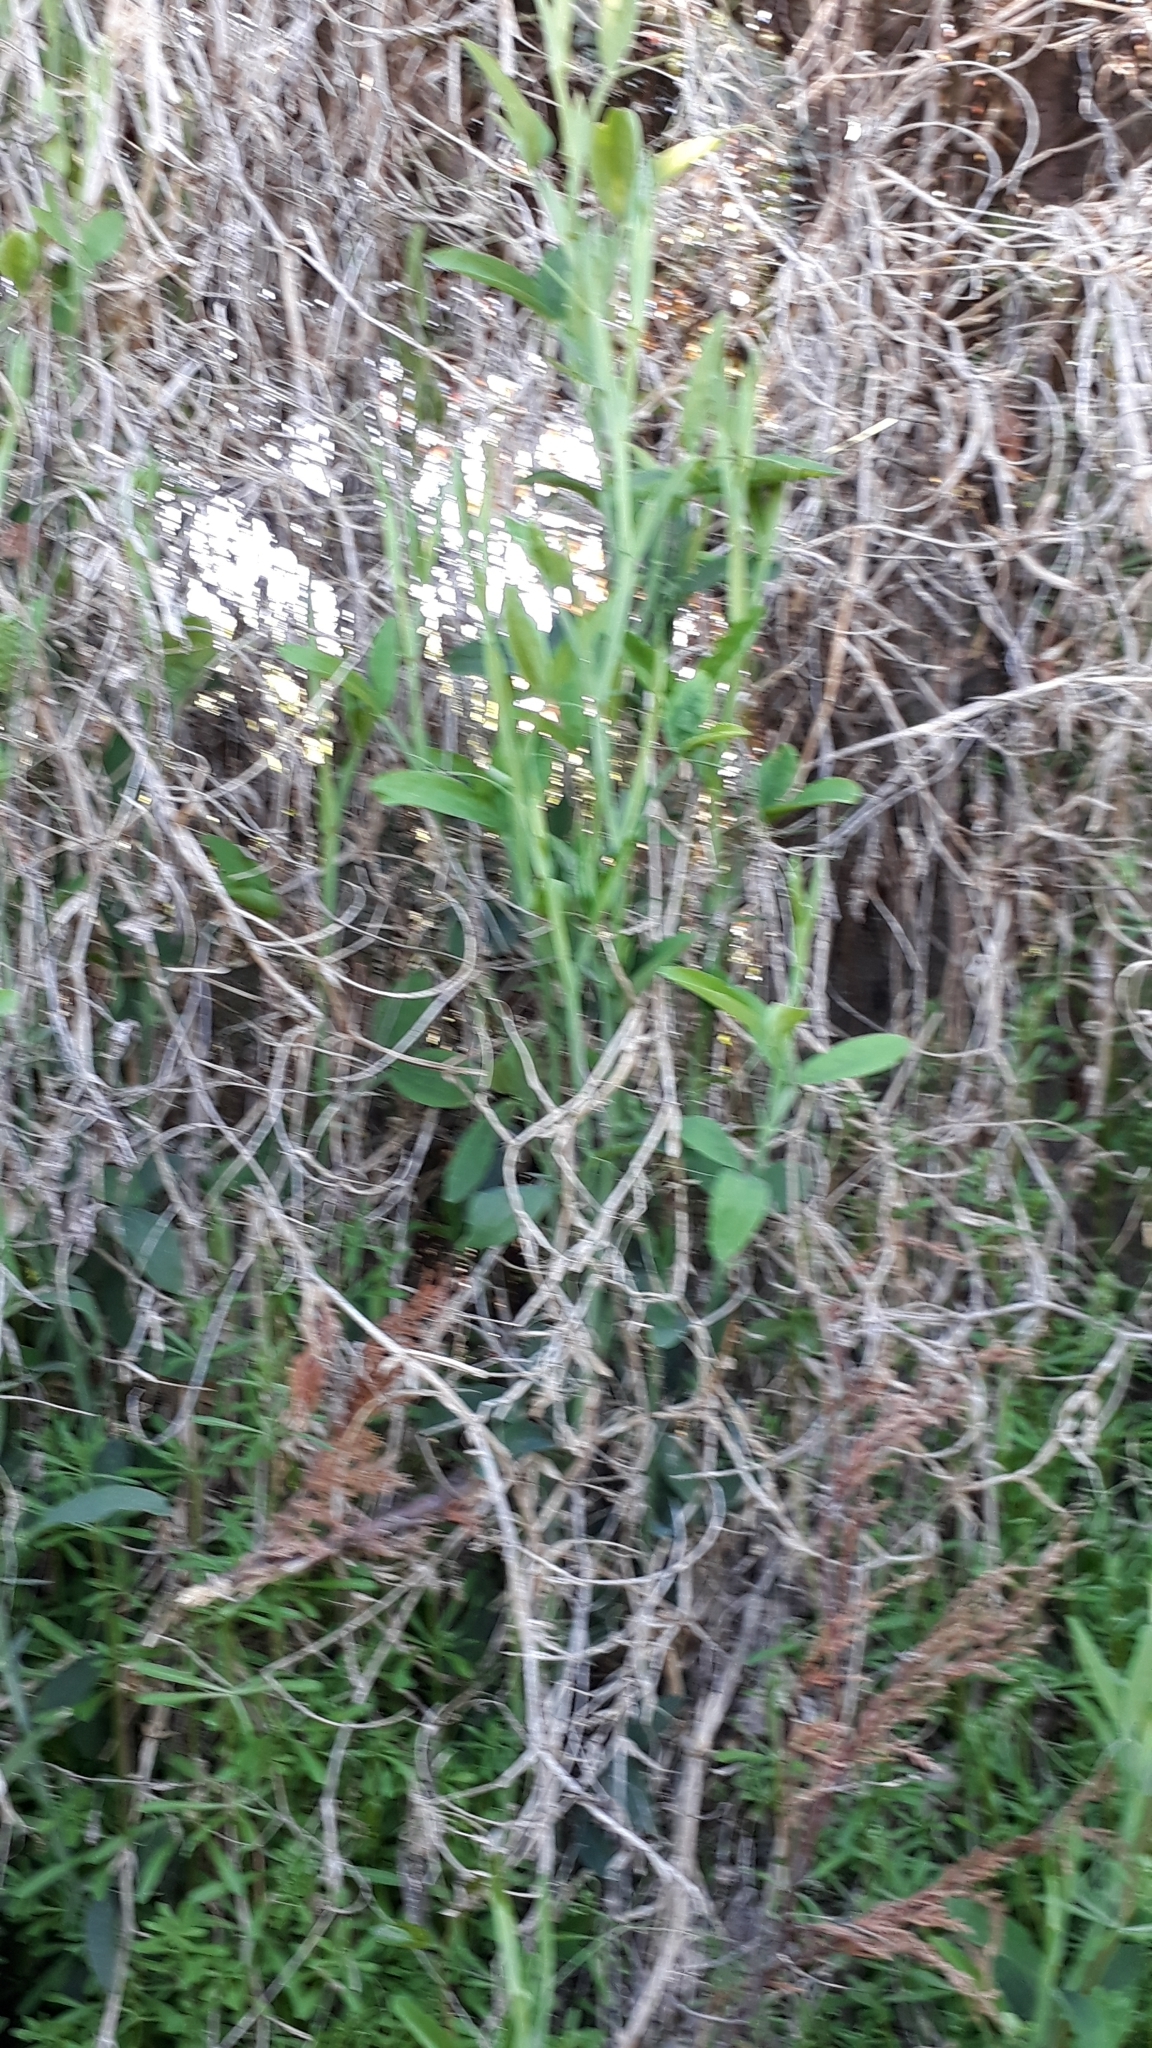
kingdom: Plantae
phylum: Tracheophyta
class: Magnoliopsida
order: Fabales
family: Fabaceae
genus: Lathyrus
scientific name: Lathyrus odoratus
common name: Sweet pea
